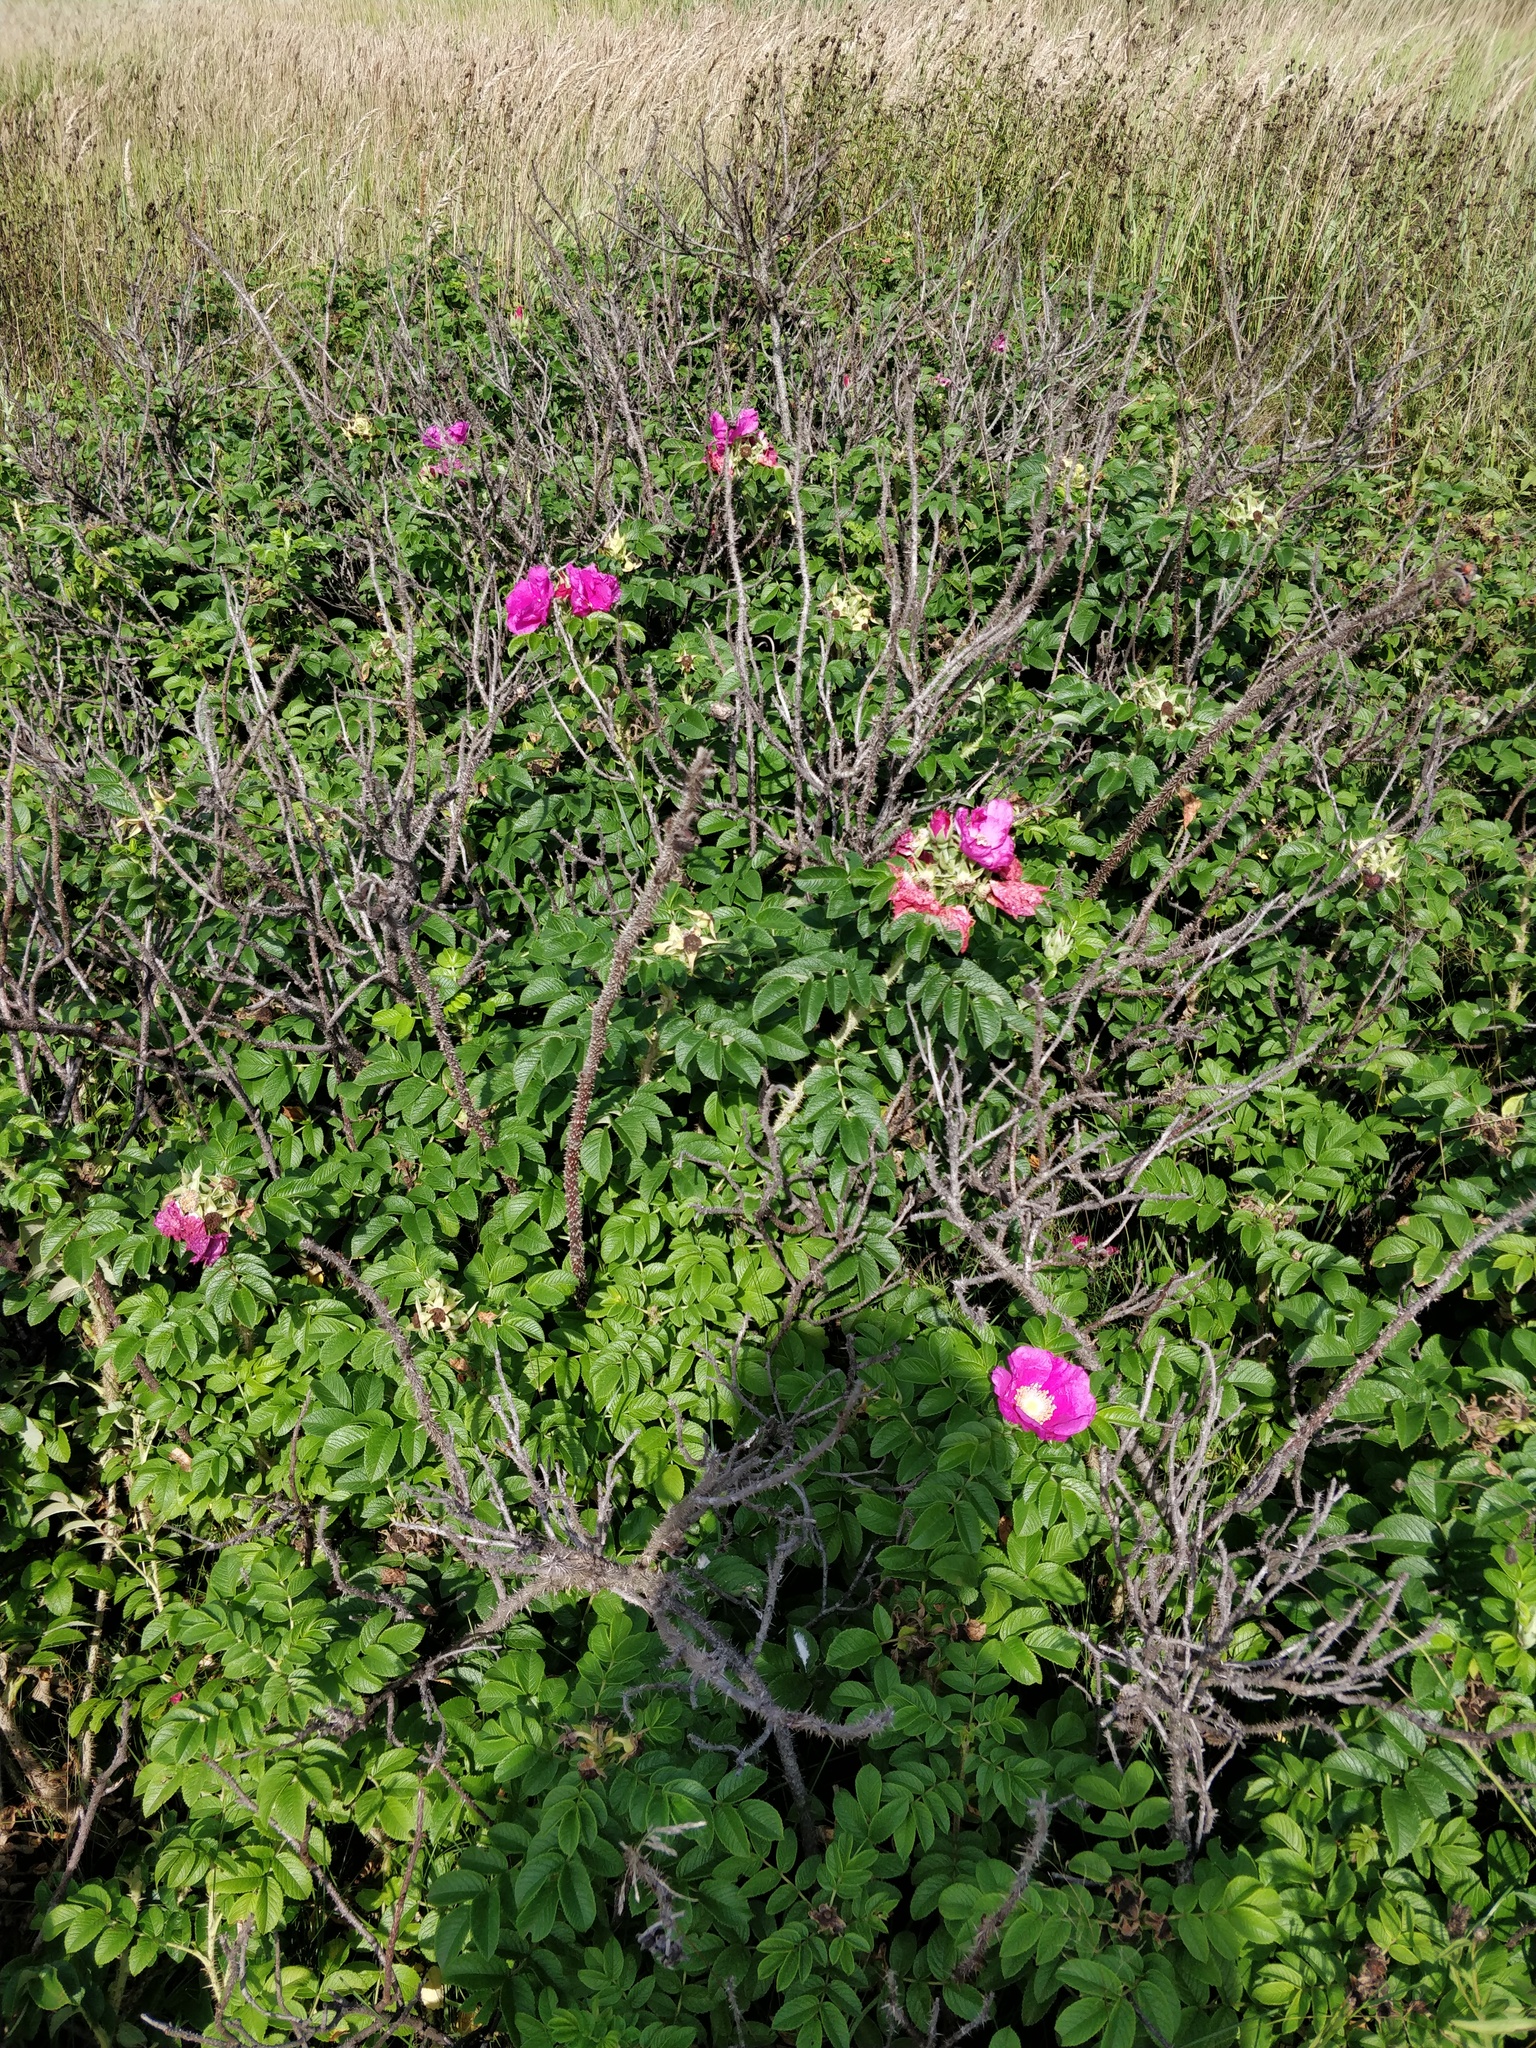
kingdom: Plantae
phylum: Tracheophyta
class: Magnoliopsida
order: Rosales
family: Rosaceae
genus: Rosa
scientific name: Rosa rugosa
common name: Japanese rose
